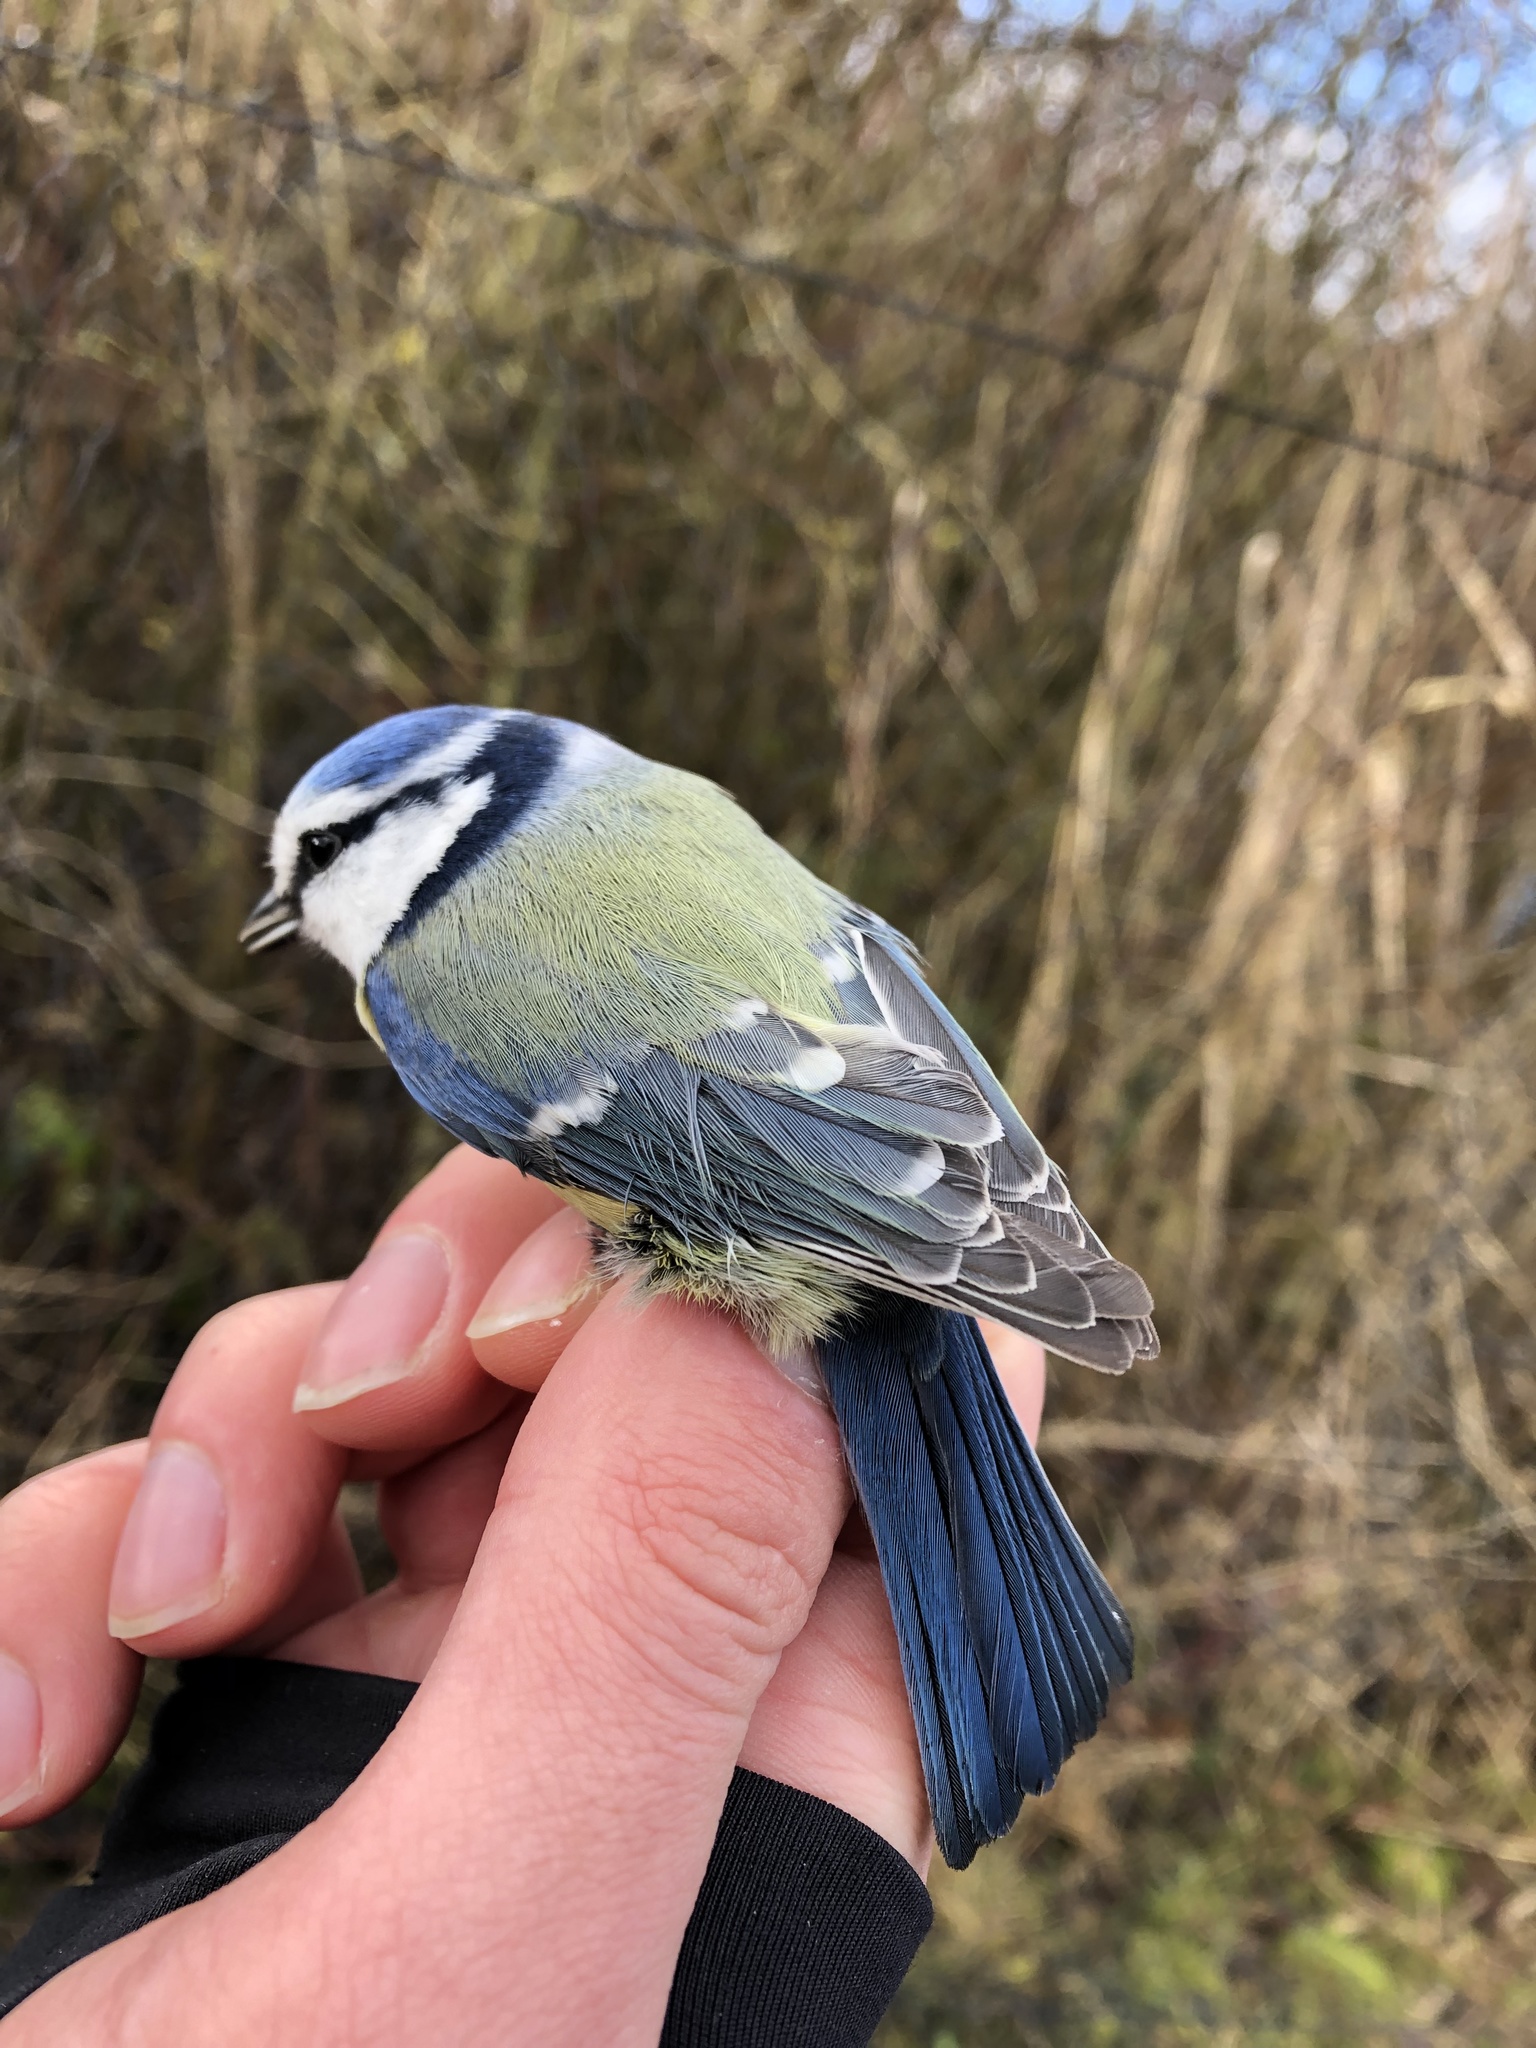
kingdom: Animalia
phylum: Chordata
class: Aves
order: Passeriformes
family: Paridae
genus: Cyanistes
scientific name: Cyanistes caeruleus
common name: Eurasian blue tit
